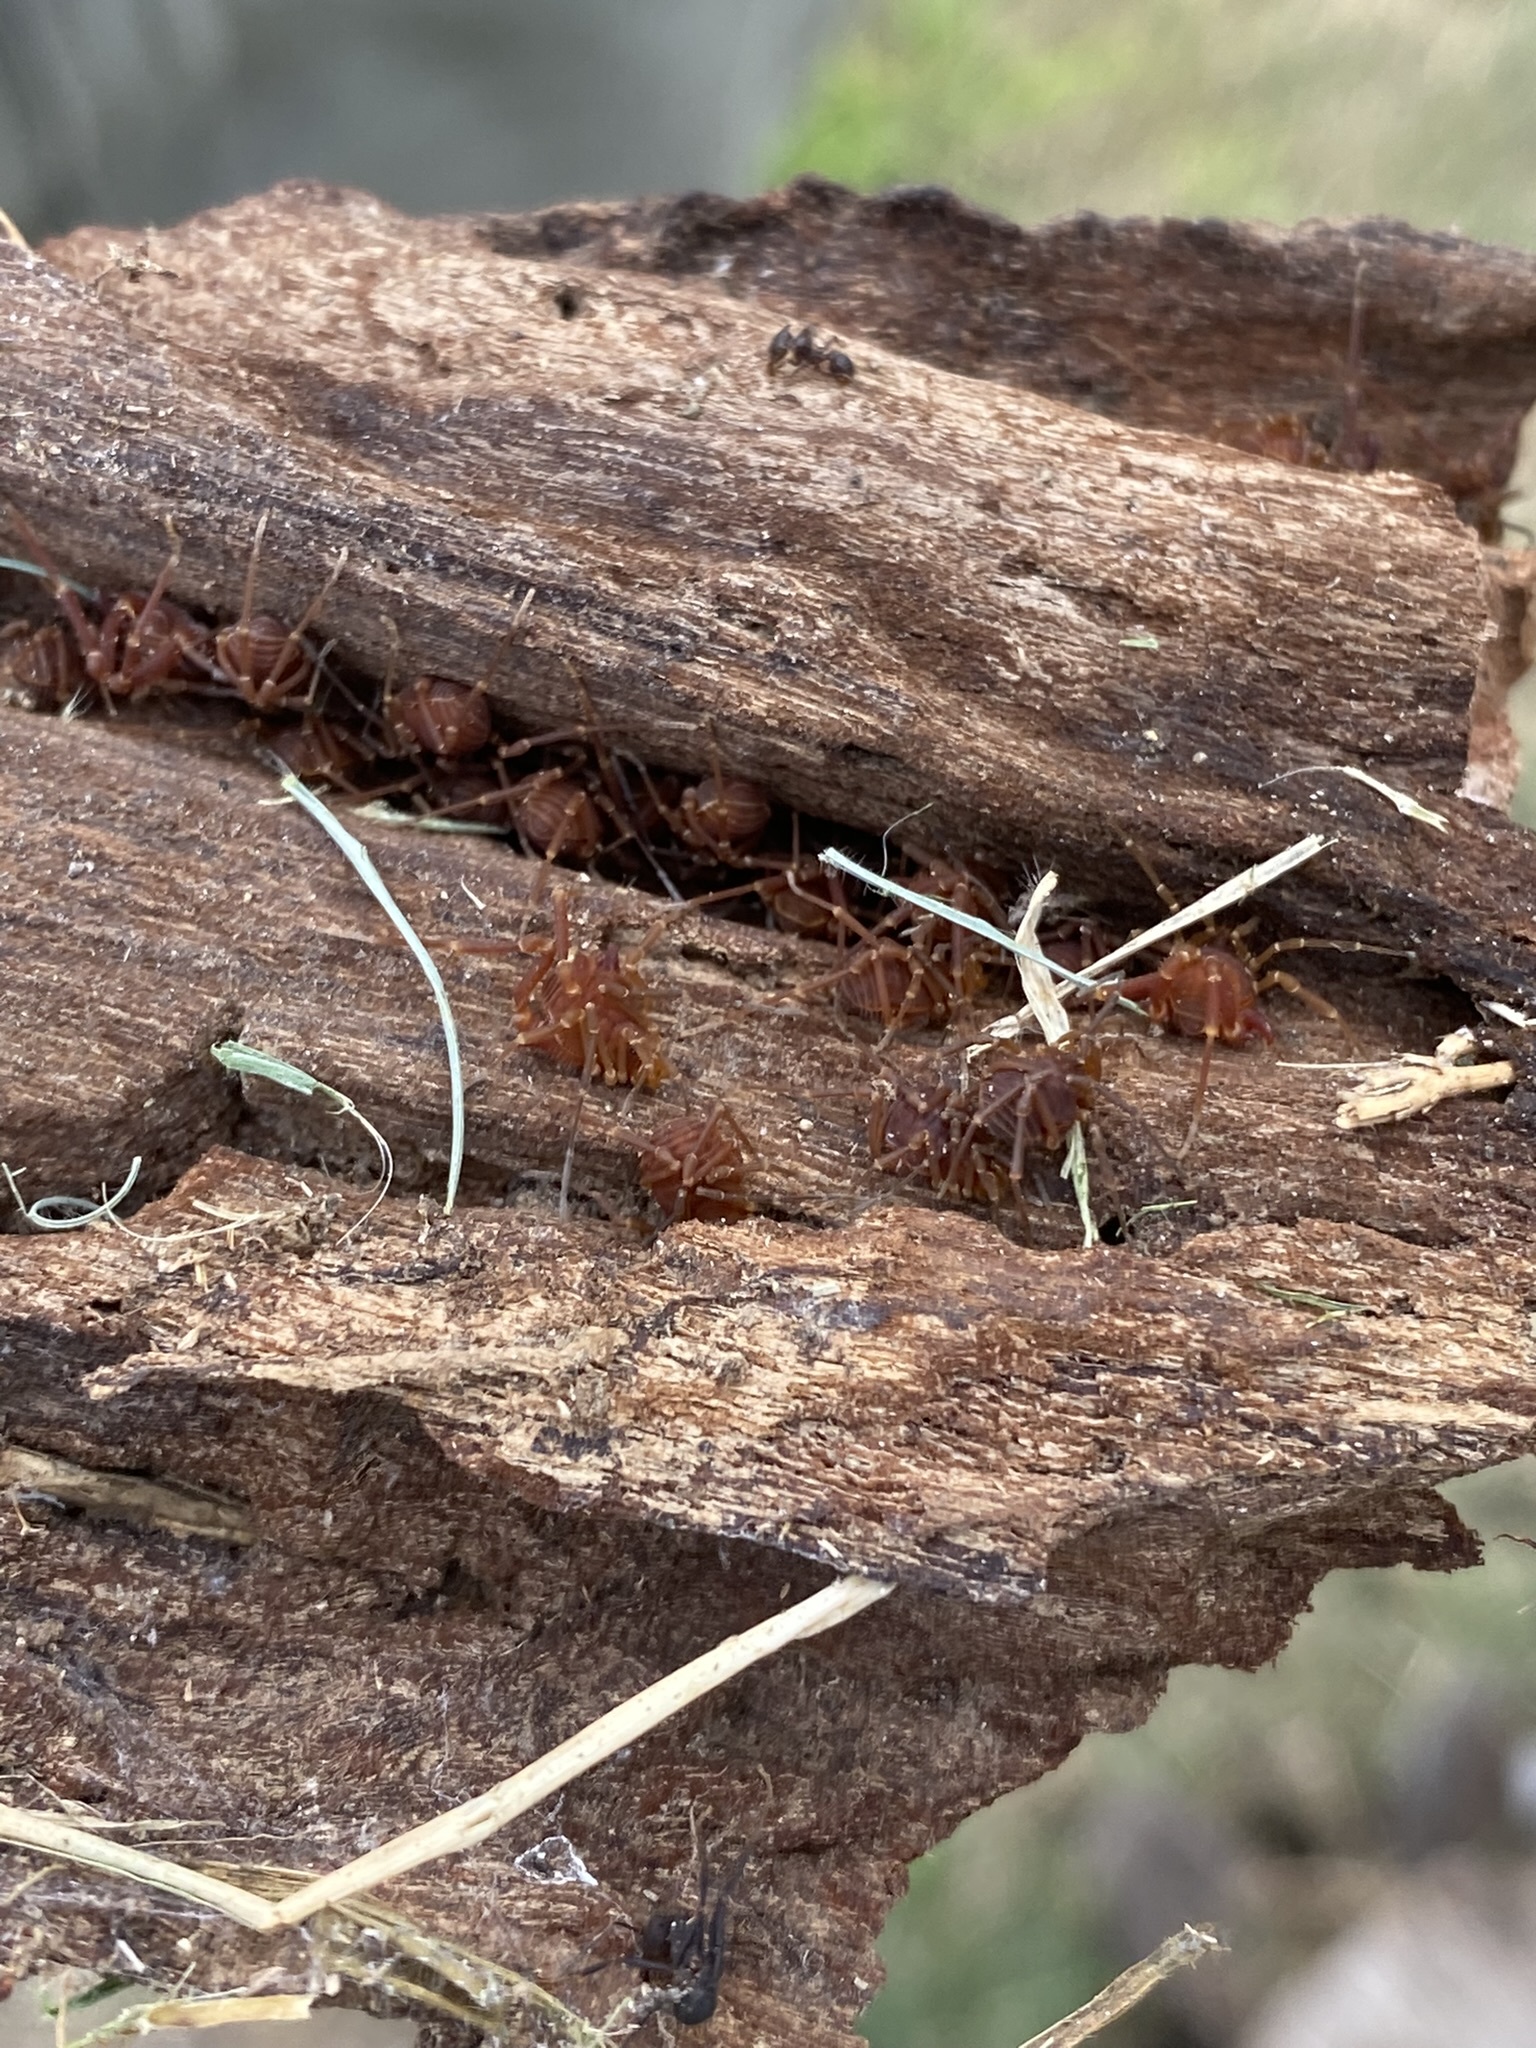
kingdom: Animalia
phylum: Arthropoda
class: Arachnida
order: Opiliones
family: Gonyleptidae
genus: Eusarcus
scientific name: Eusarcus hastatus
